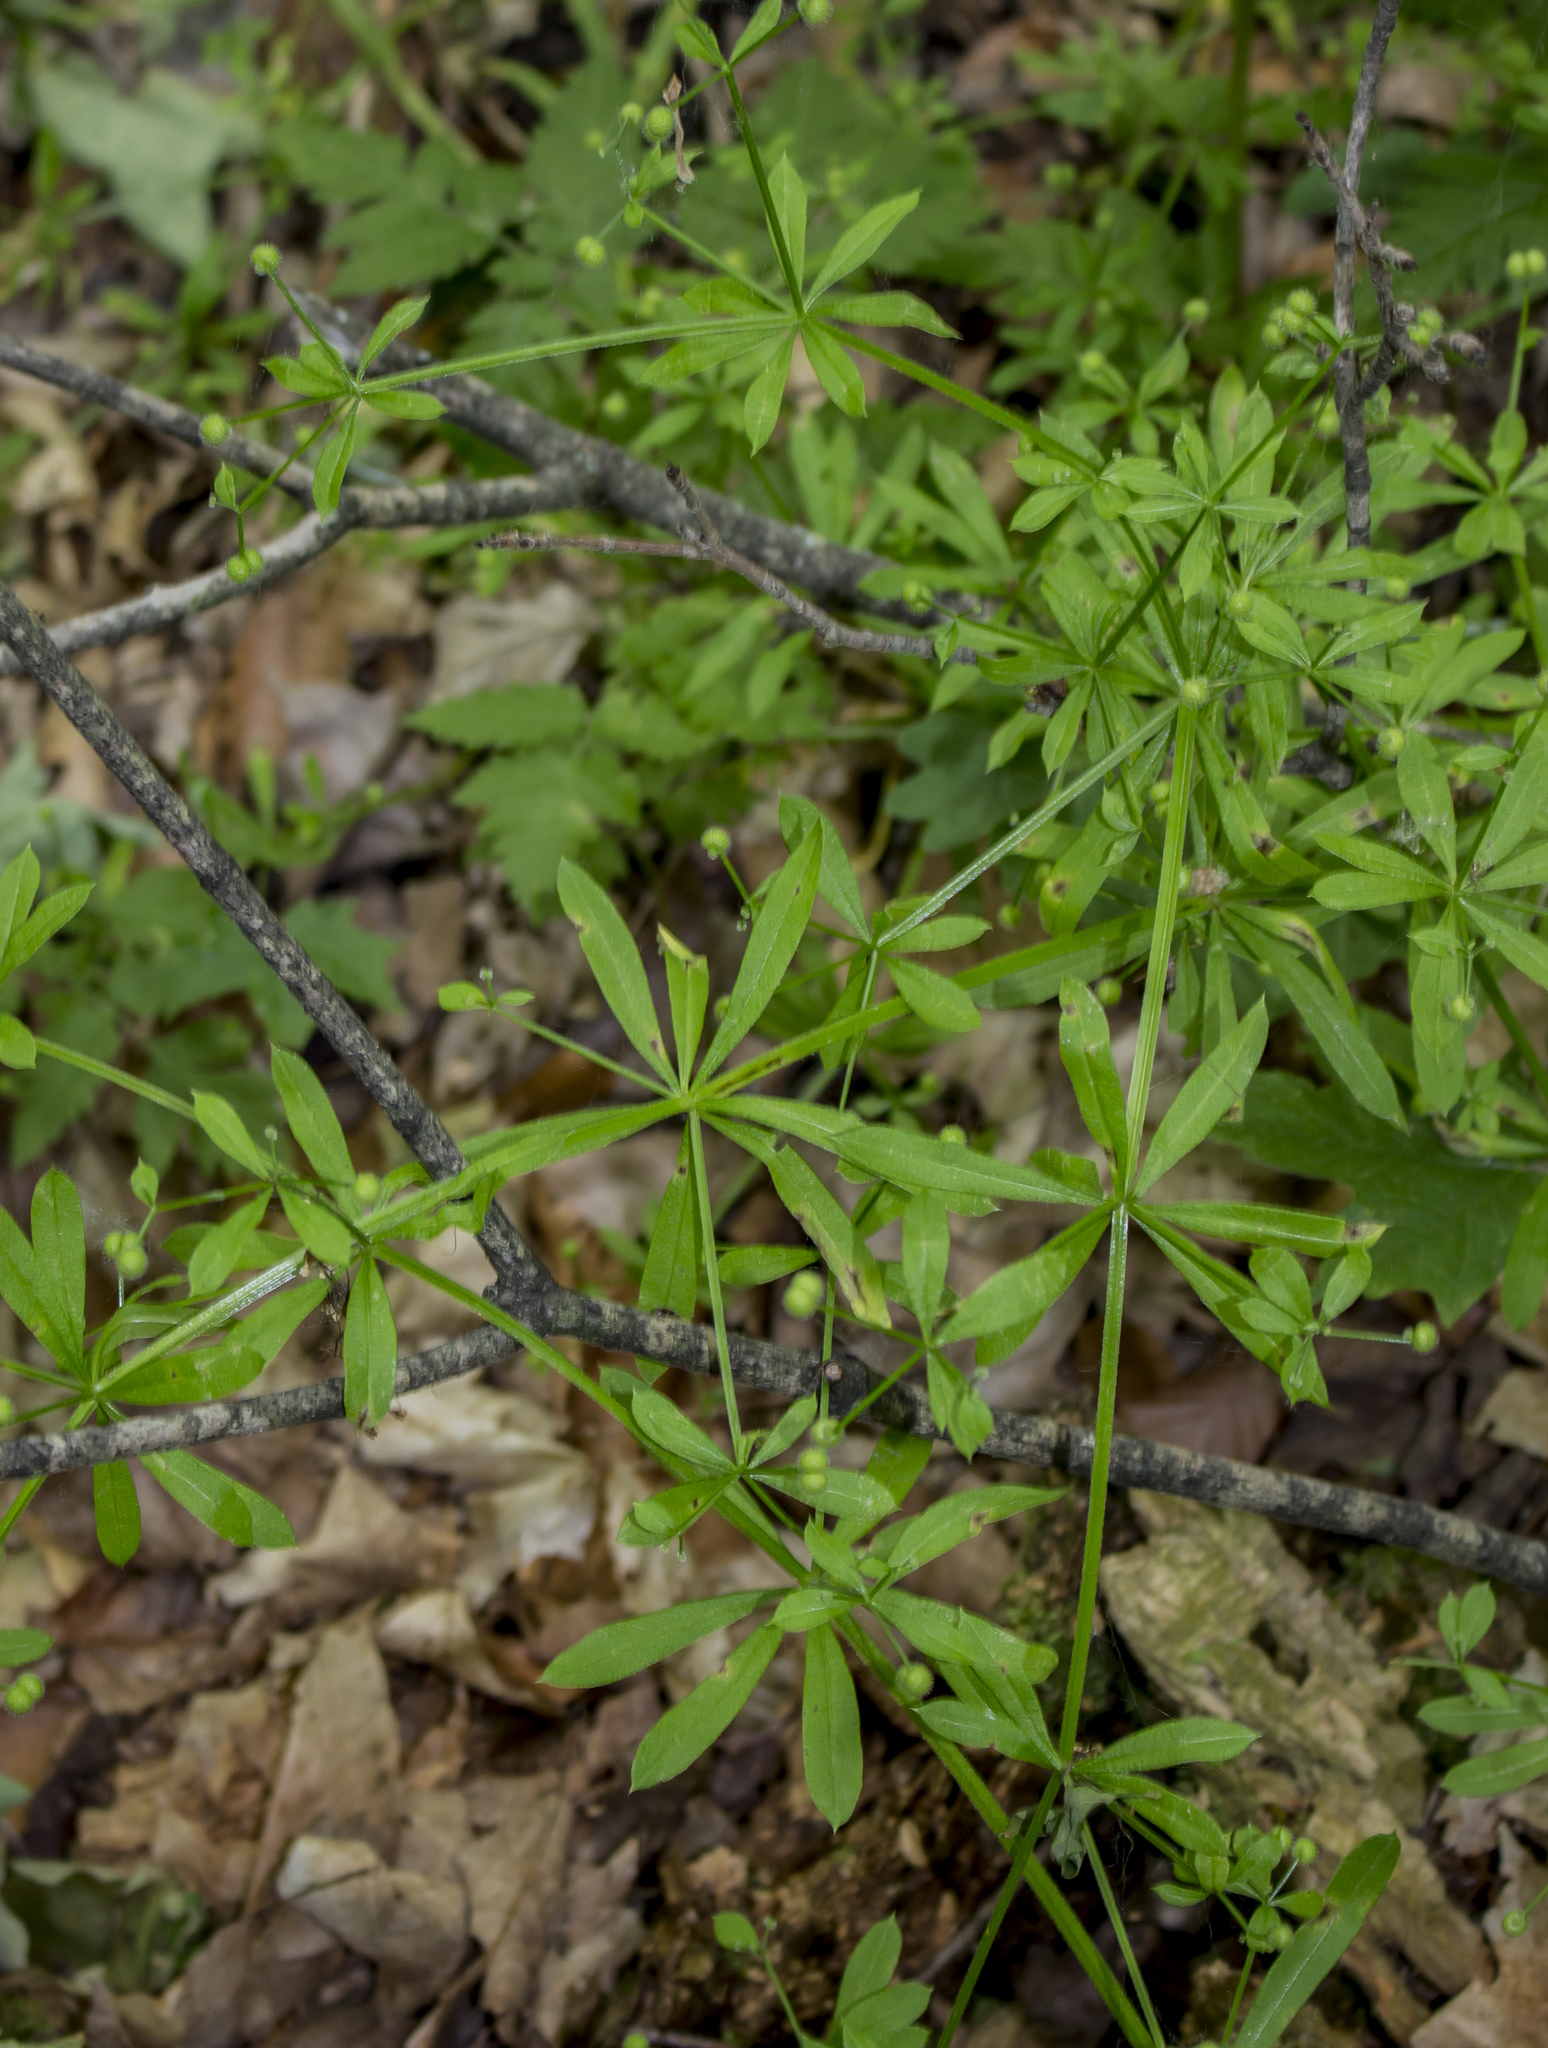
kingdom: Plantae
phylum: Tracheophyta
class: Magnoliopsida
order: Gentianales
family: Rubiaceae
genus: Galium
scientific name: Galium aparine
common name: Cleavers
